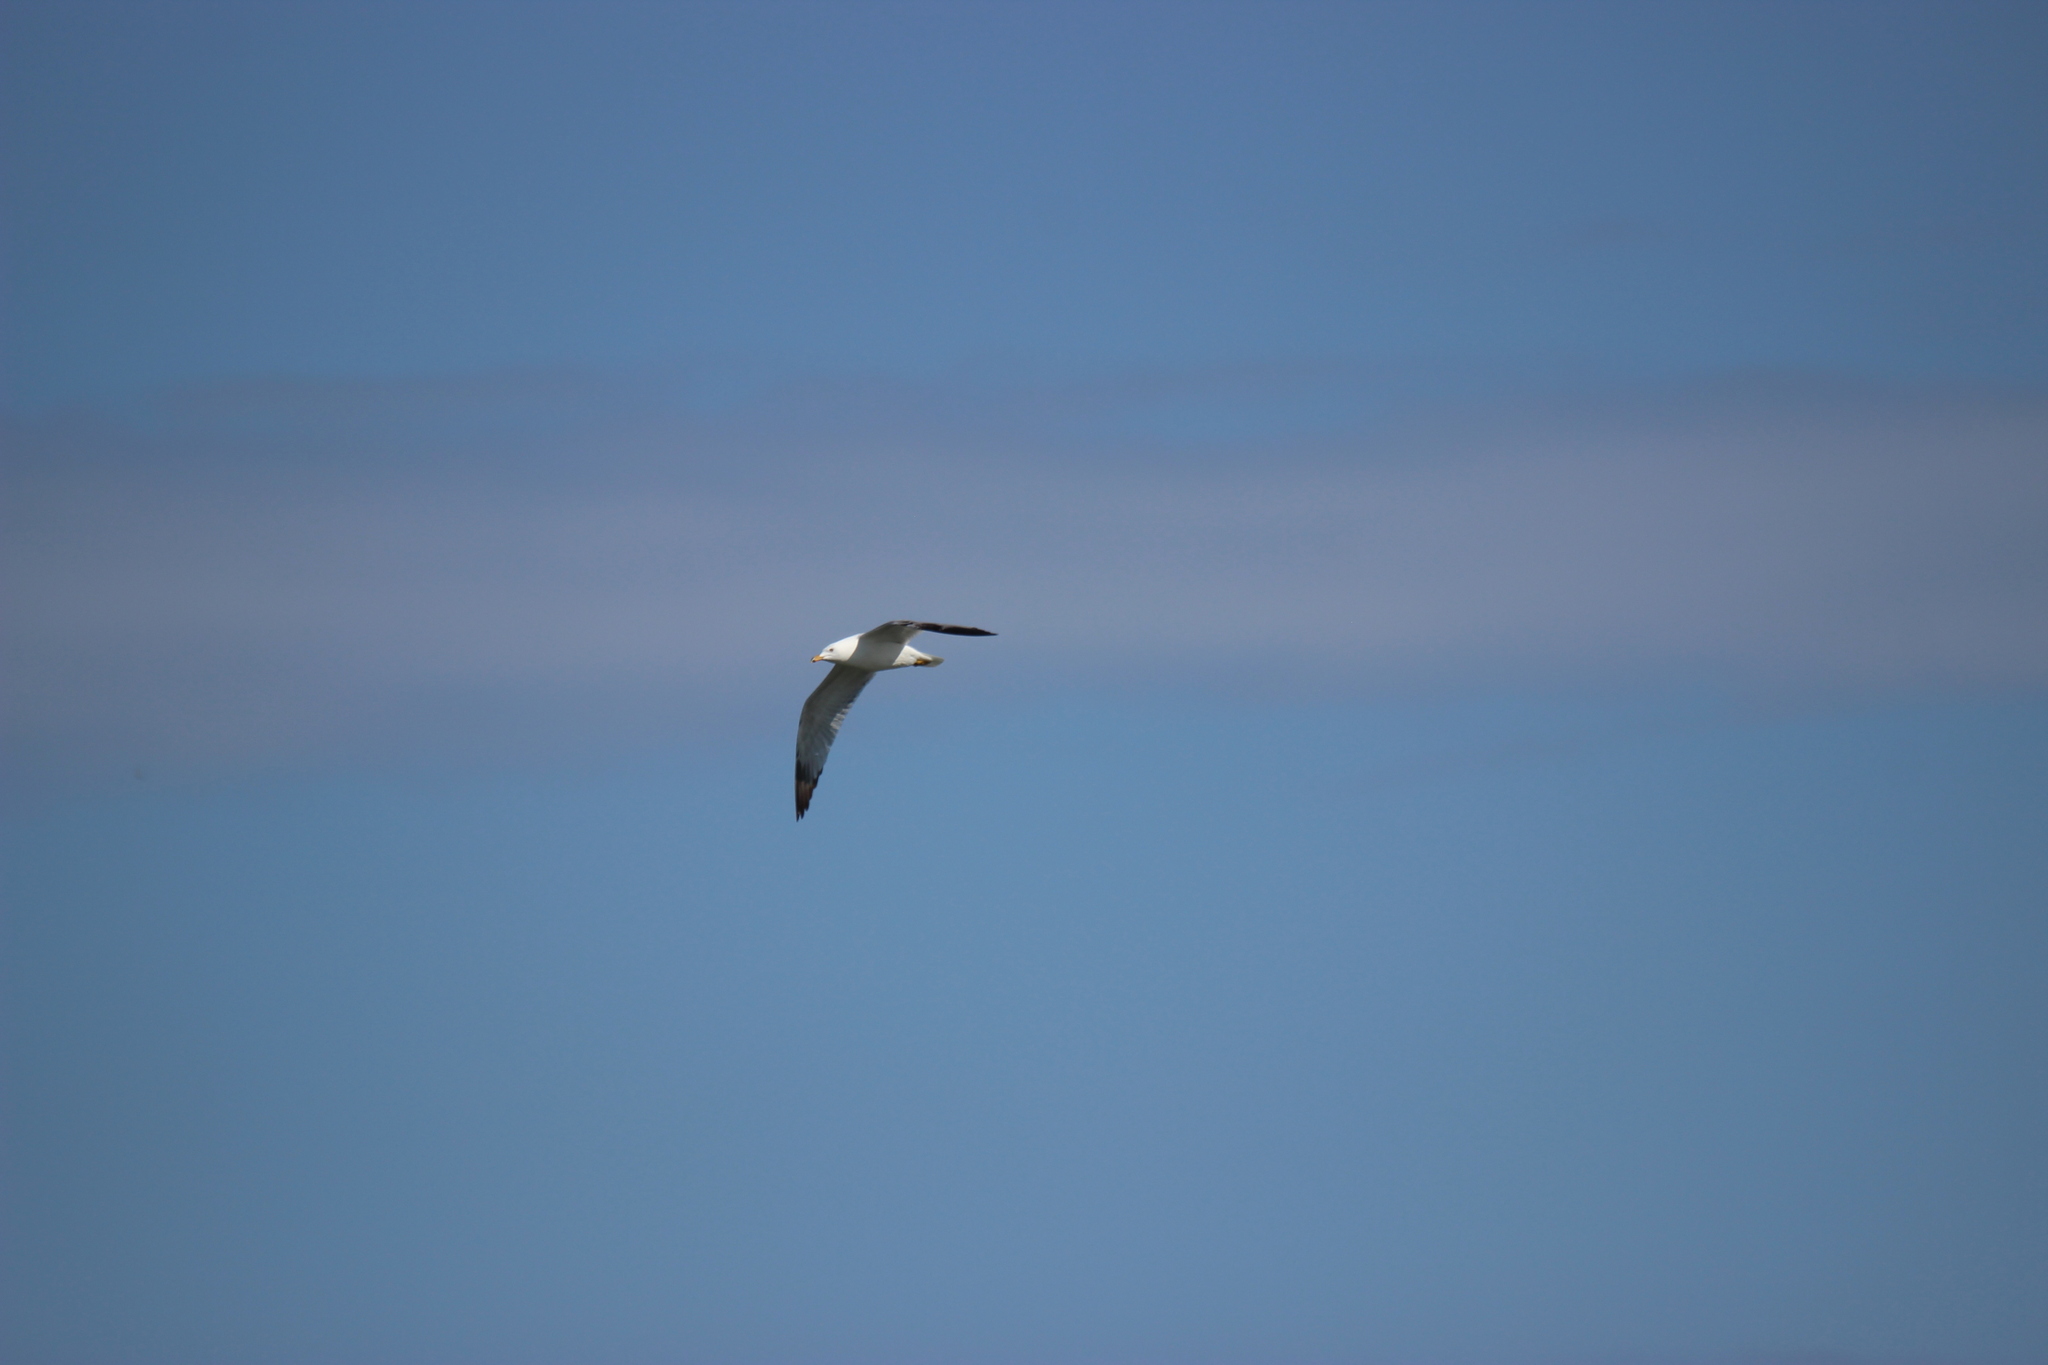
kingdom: Animalia
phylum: Chordata
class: Aves
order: Charadriiformes
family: Laridae
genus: Larus
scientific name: Larus delawarensis
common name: Ring-billed gull
